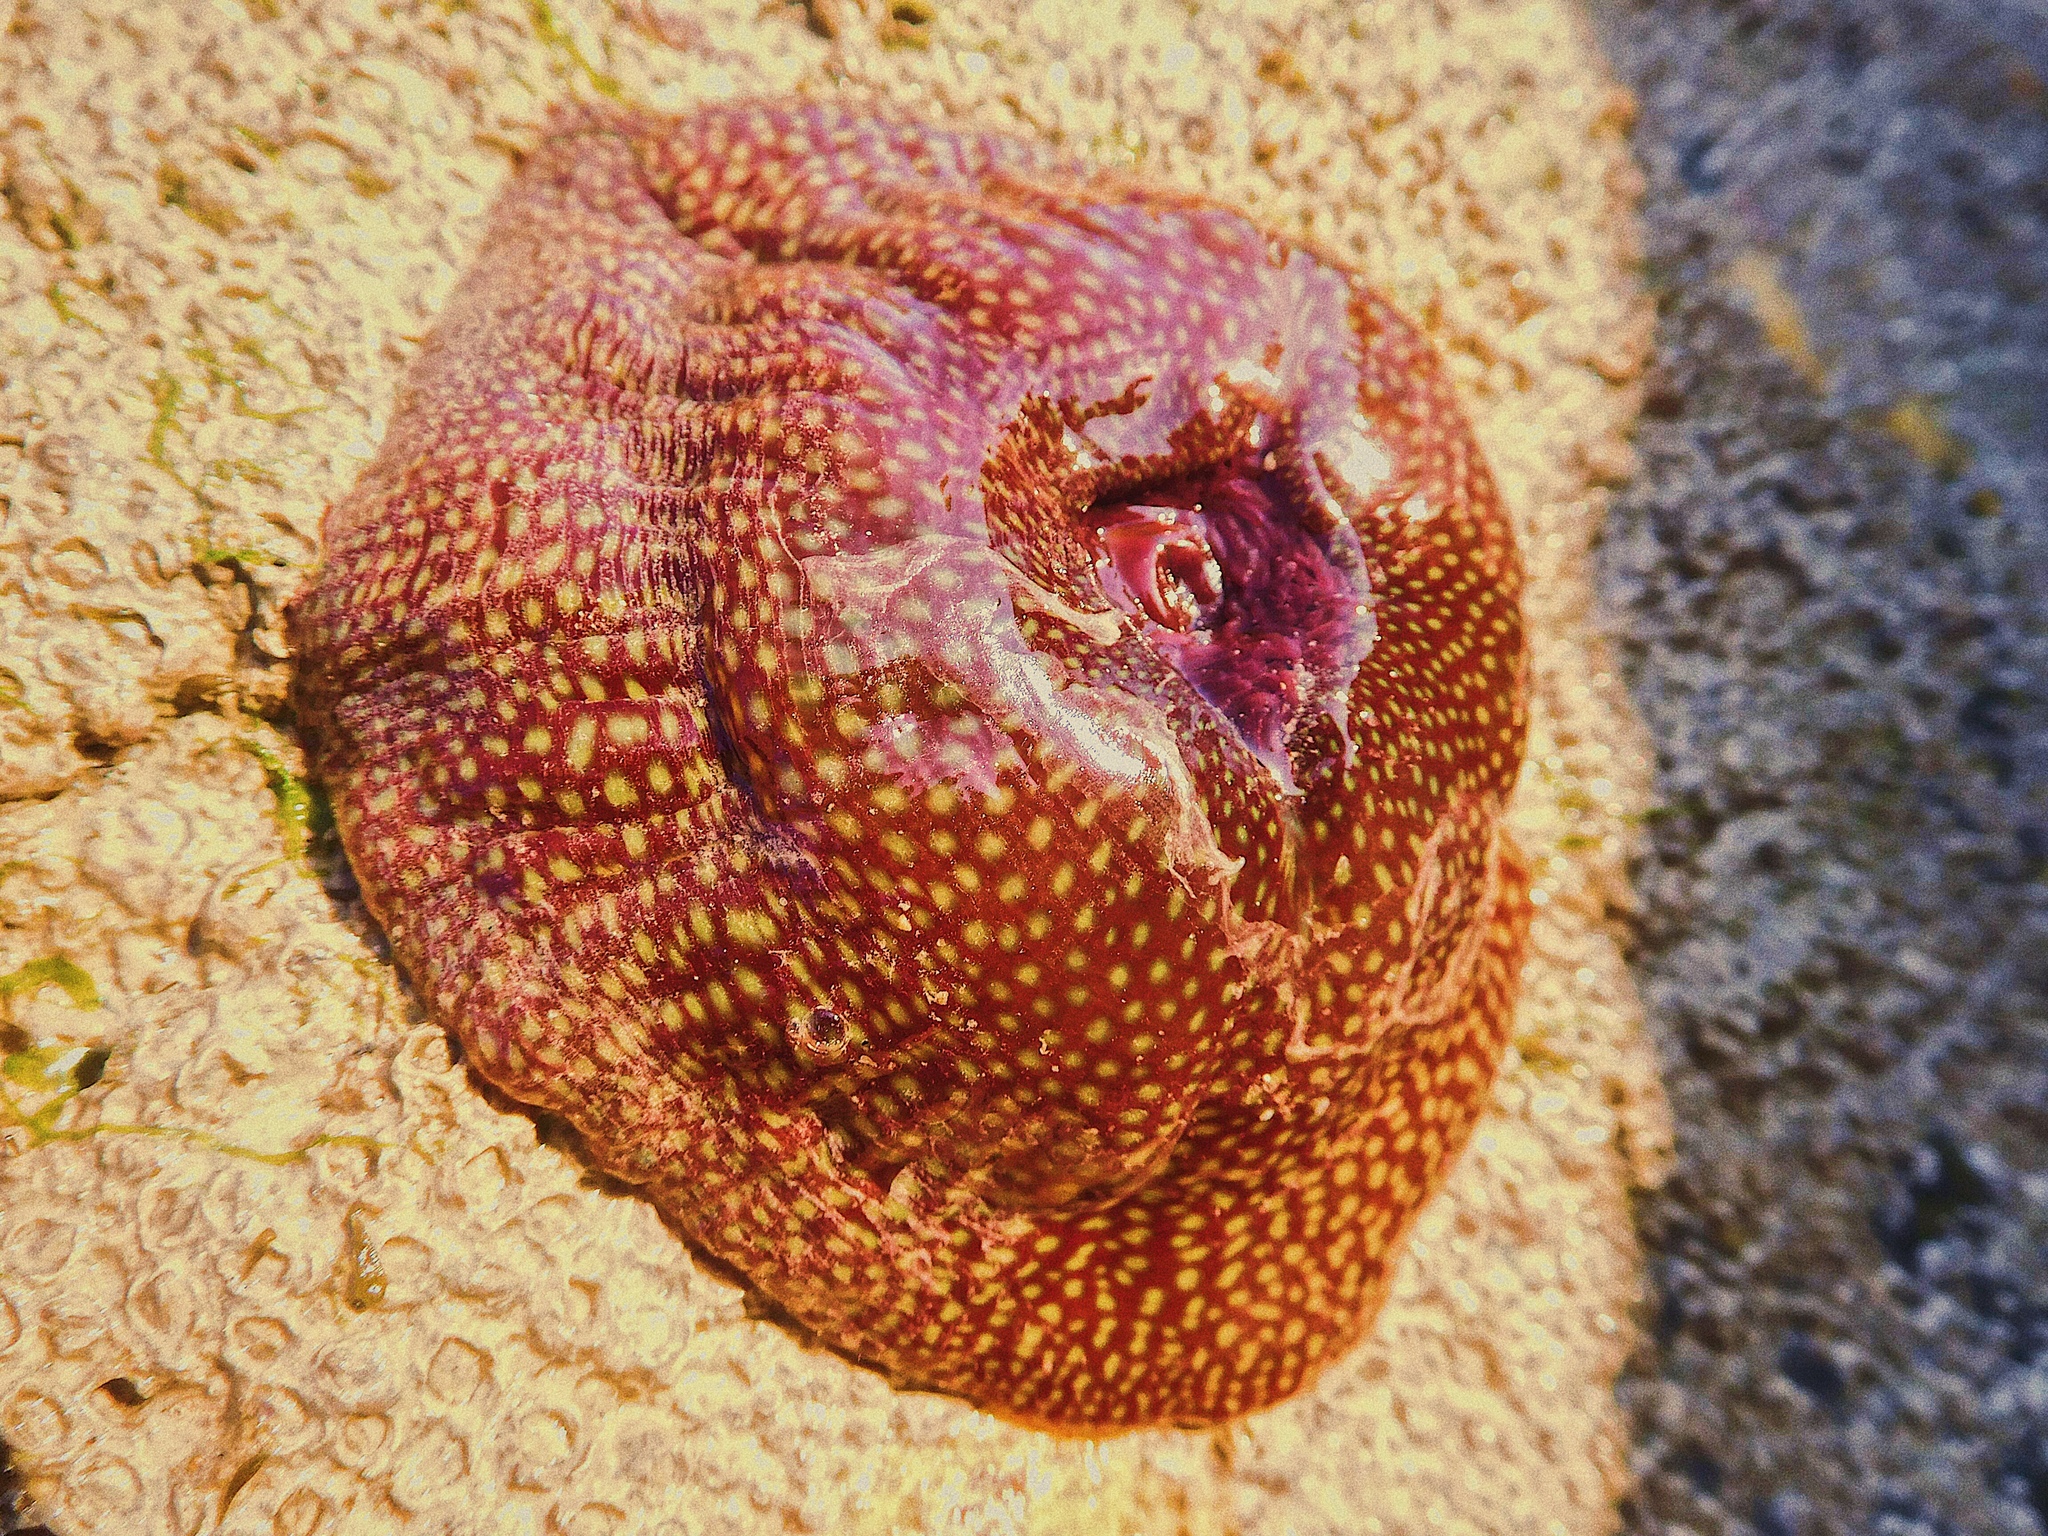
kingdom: Animalia
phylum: Cnidaria
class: Anthozoa
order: Actiniaria
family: Actiniidae
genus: Actinia
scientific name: Actinia fragacea
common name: Strawberry anemone
